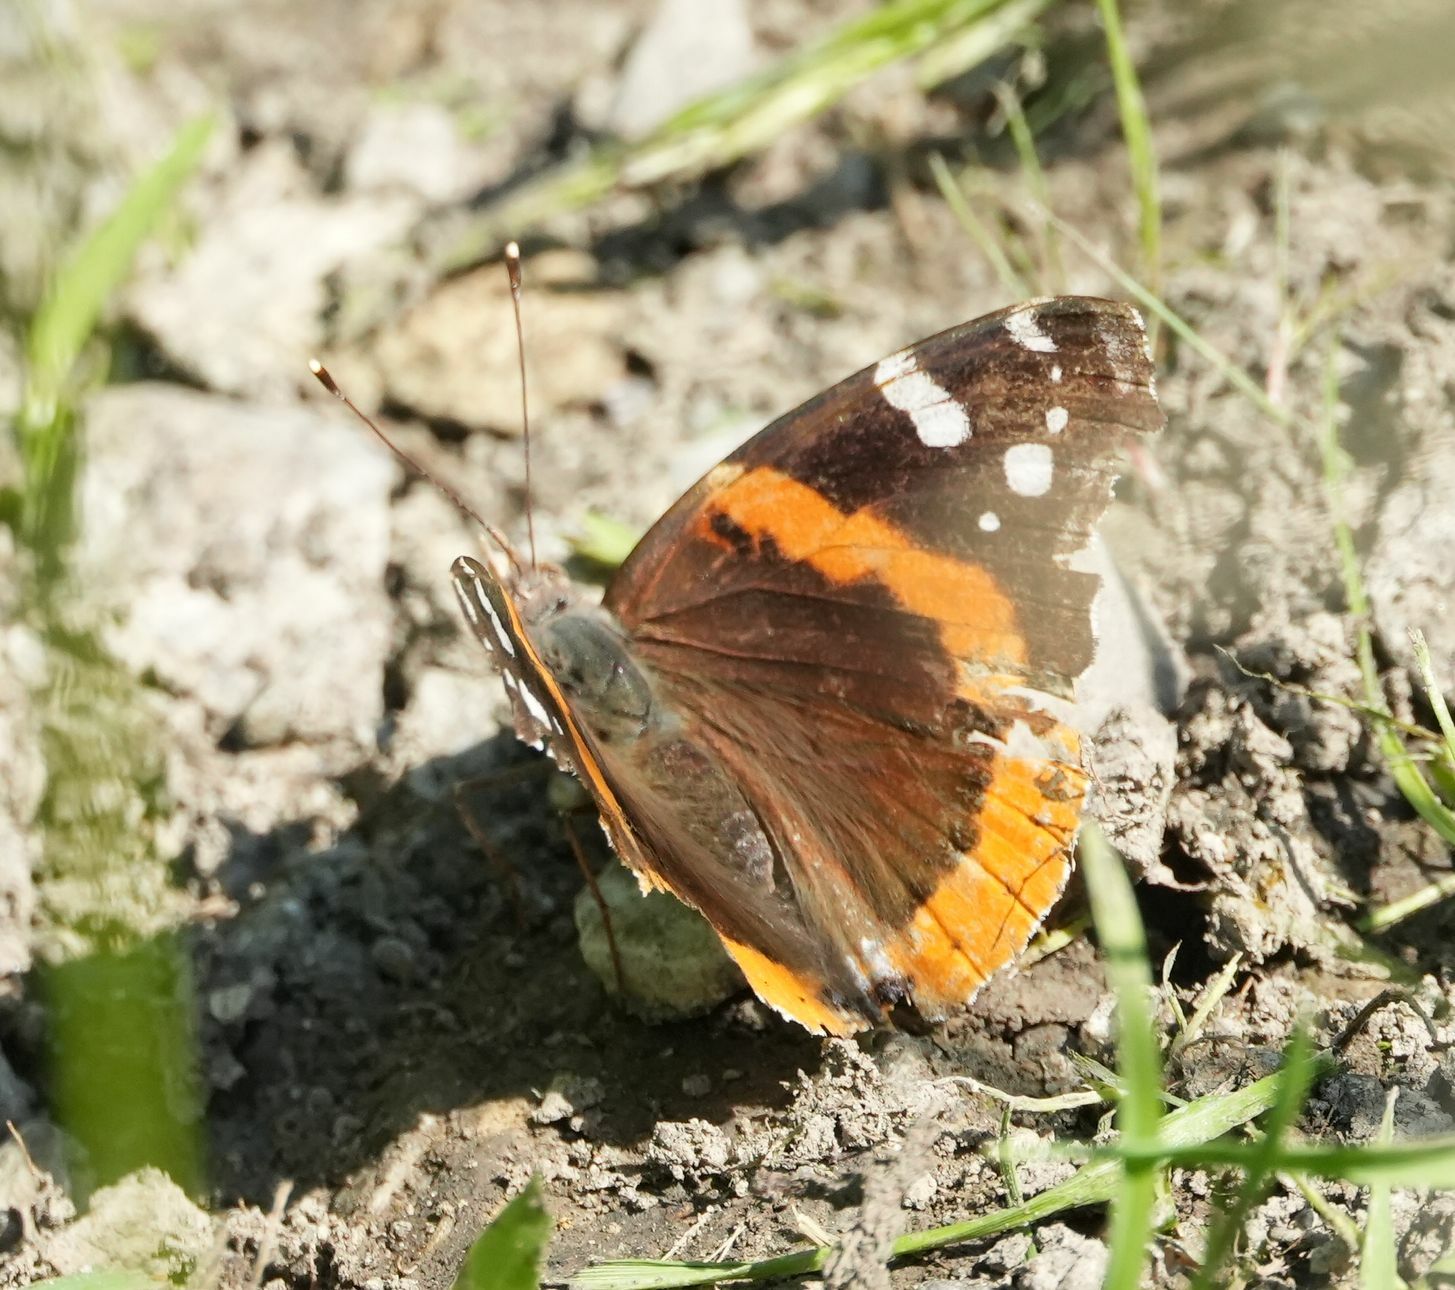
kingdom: Animalia
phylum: Arthropoda
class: Insecta
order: Lepidoptera
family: Nymphalidae
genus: Vanessa
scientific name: Vanessa atalanta
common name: Red admiral
